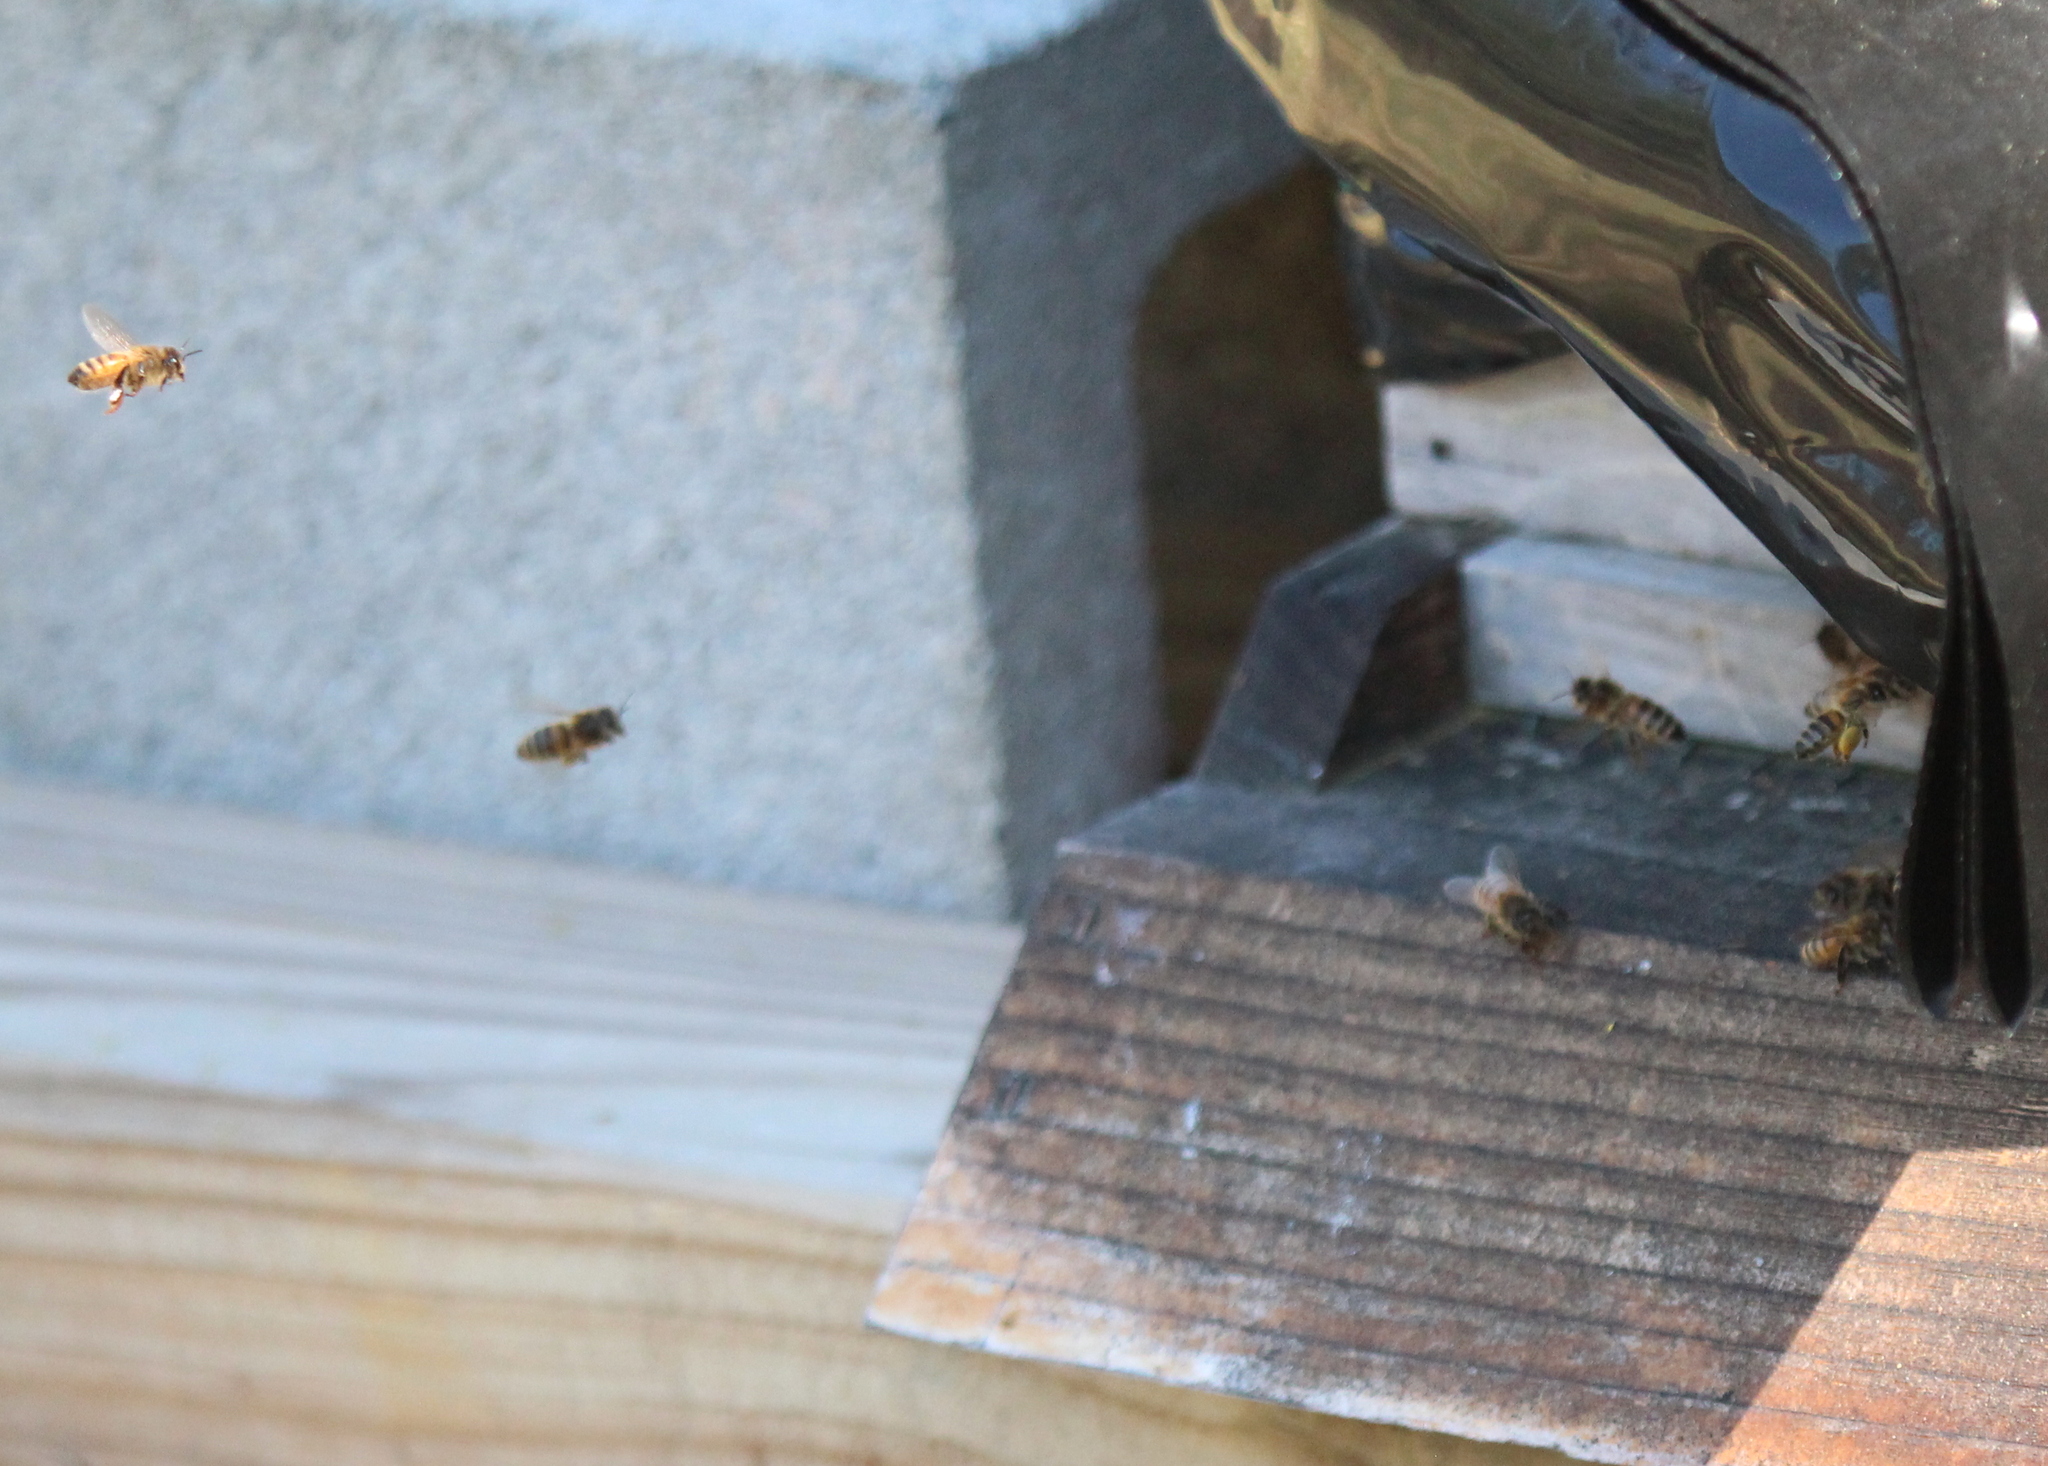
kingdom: Animalia
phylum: Arthropoda
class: Insecta
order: Hymenoptera
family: Apidae
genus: Apis
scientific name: Apis mellifera
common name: Honey bee
